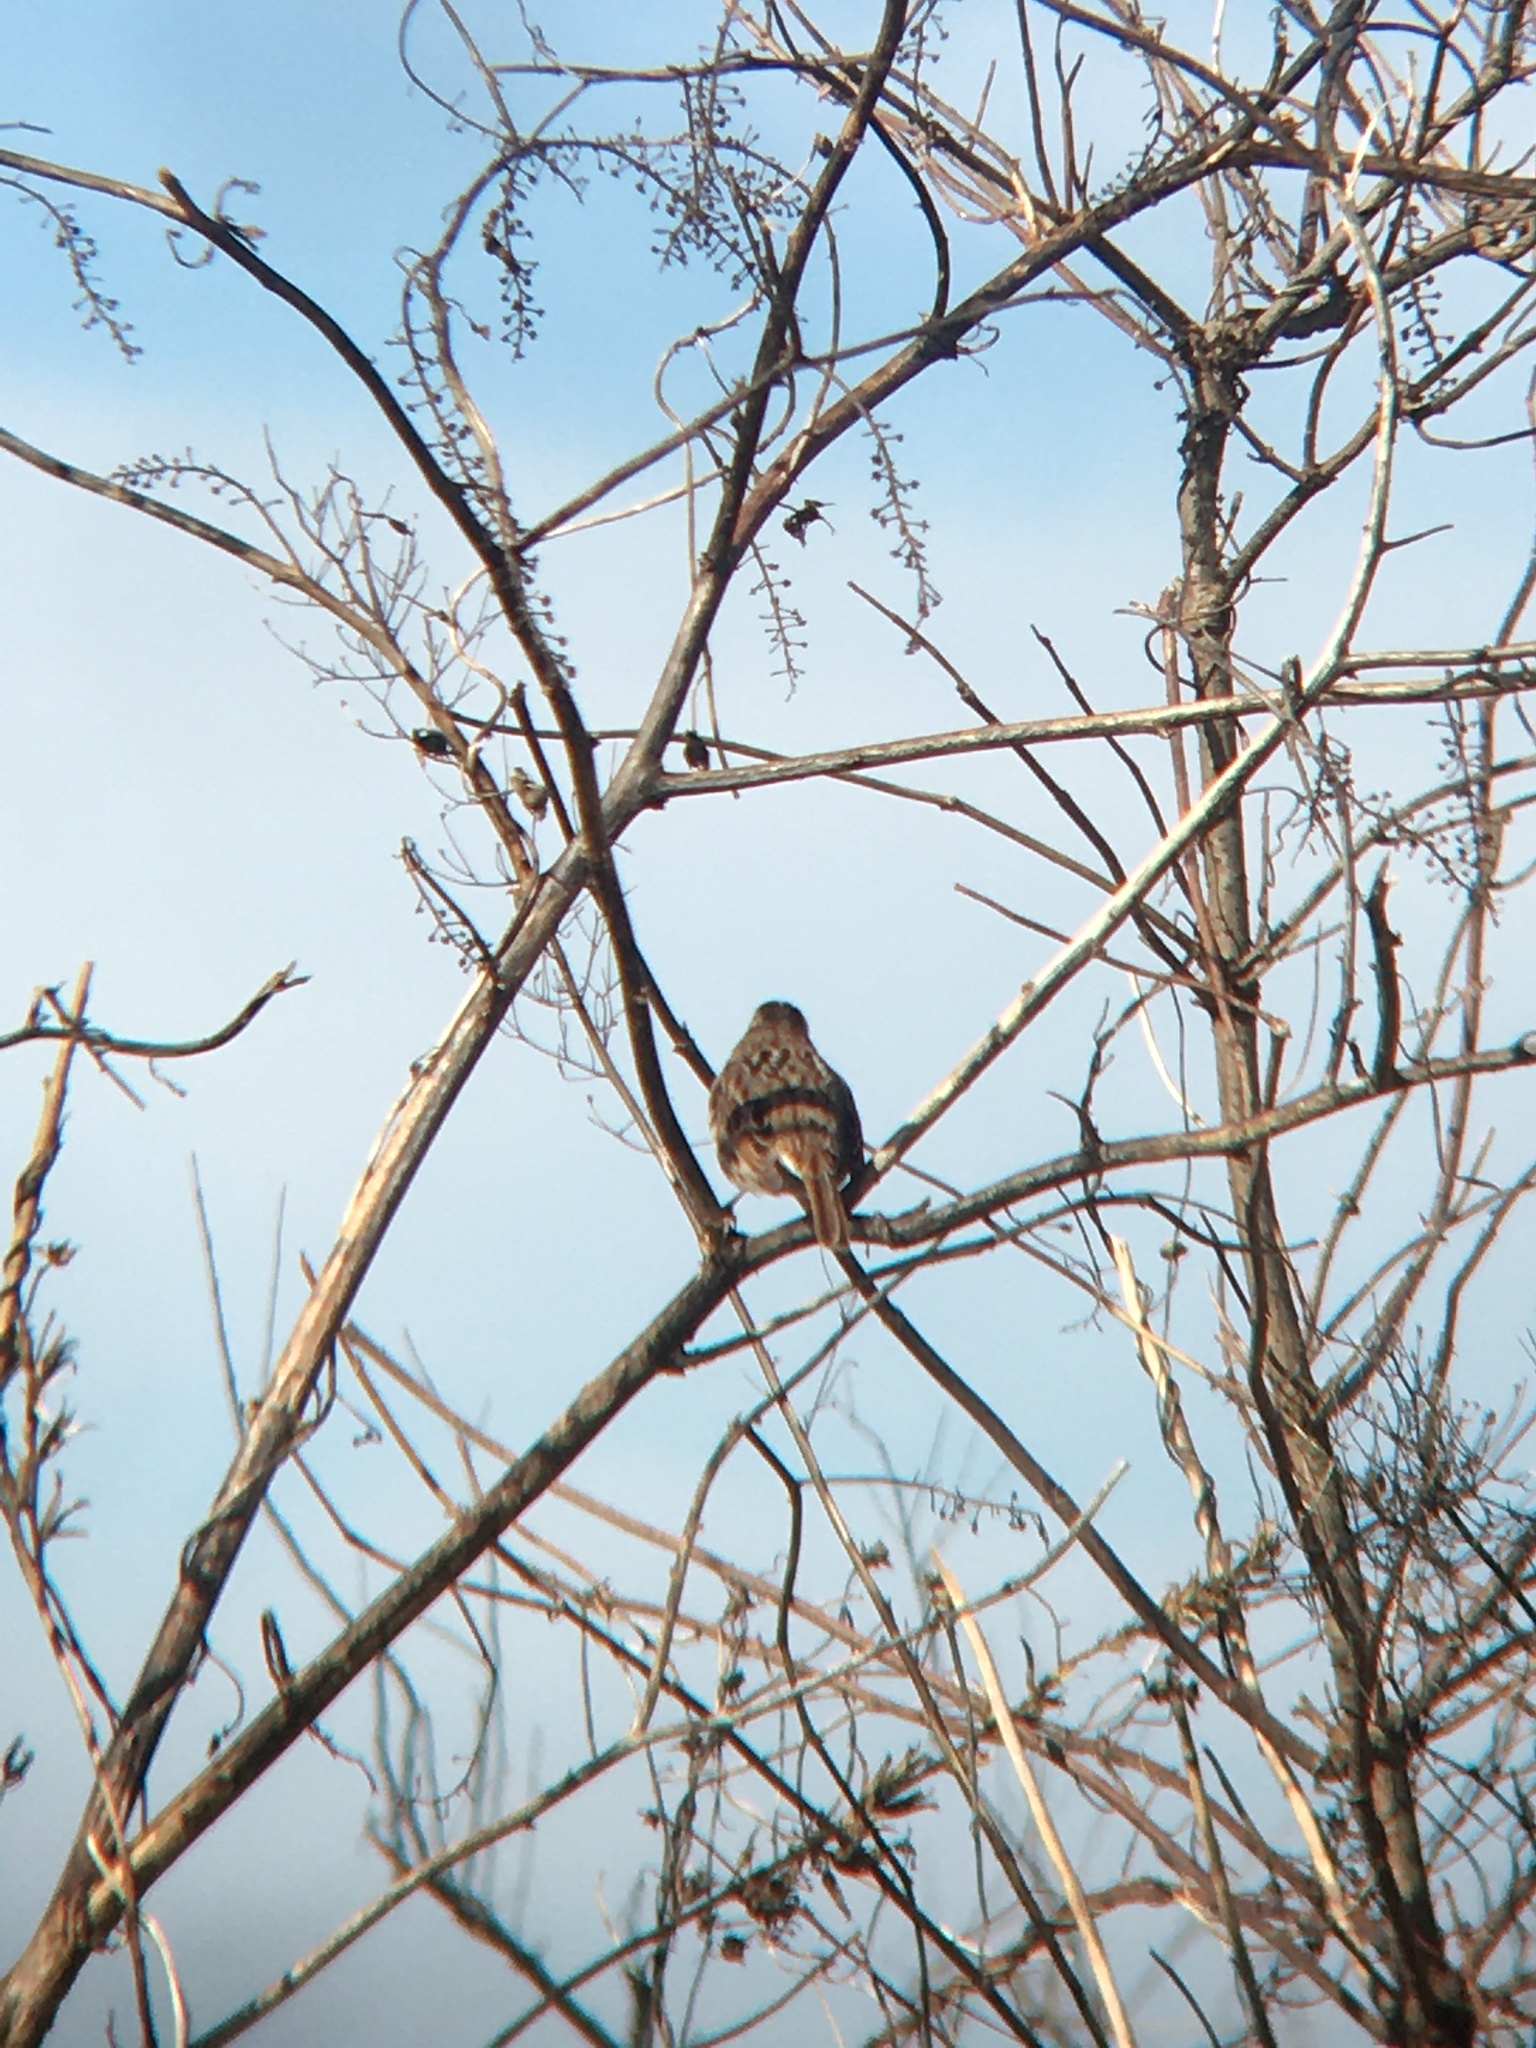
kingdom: Animalia
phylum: Chordata
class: Aves
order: Passeriformes
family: Passerellidae
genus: Zonotrichia
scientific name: Zonotrichia albicollis
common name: White-throated sparrow
